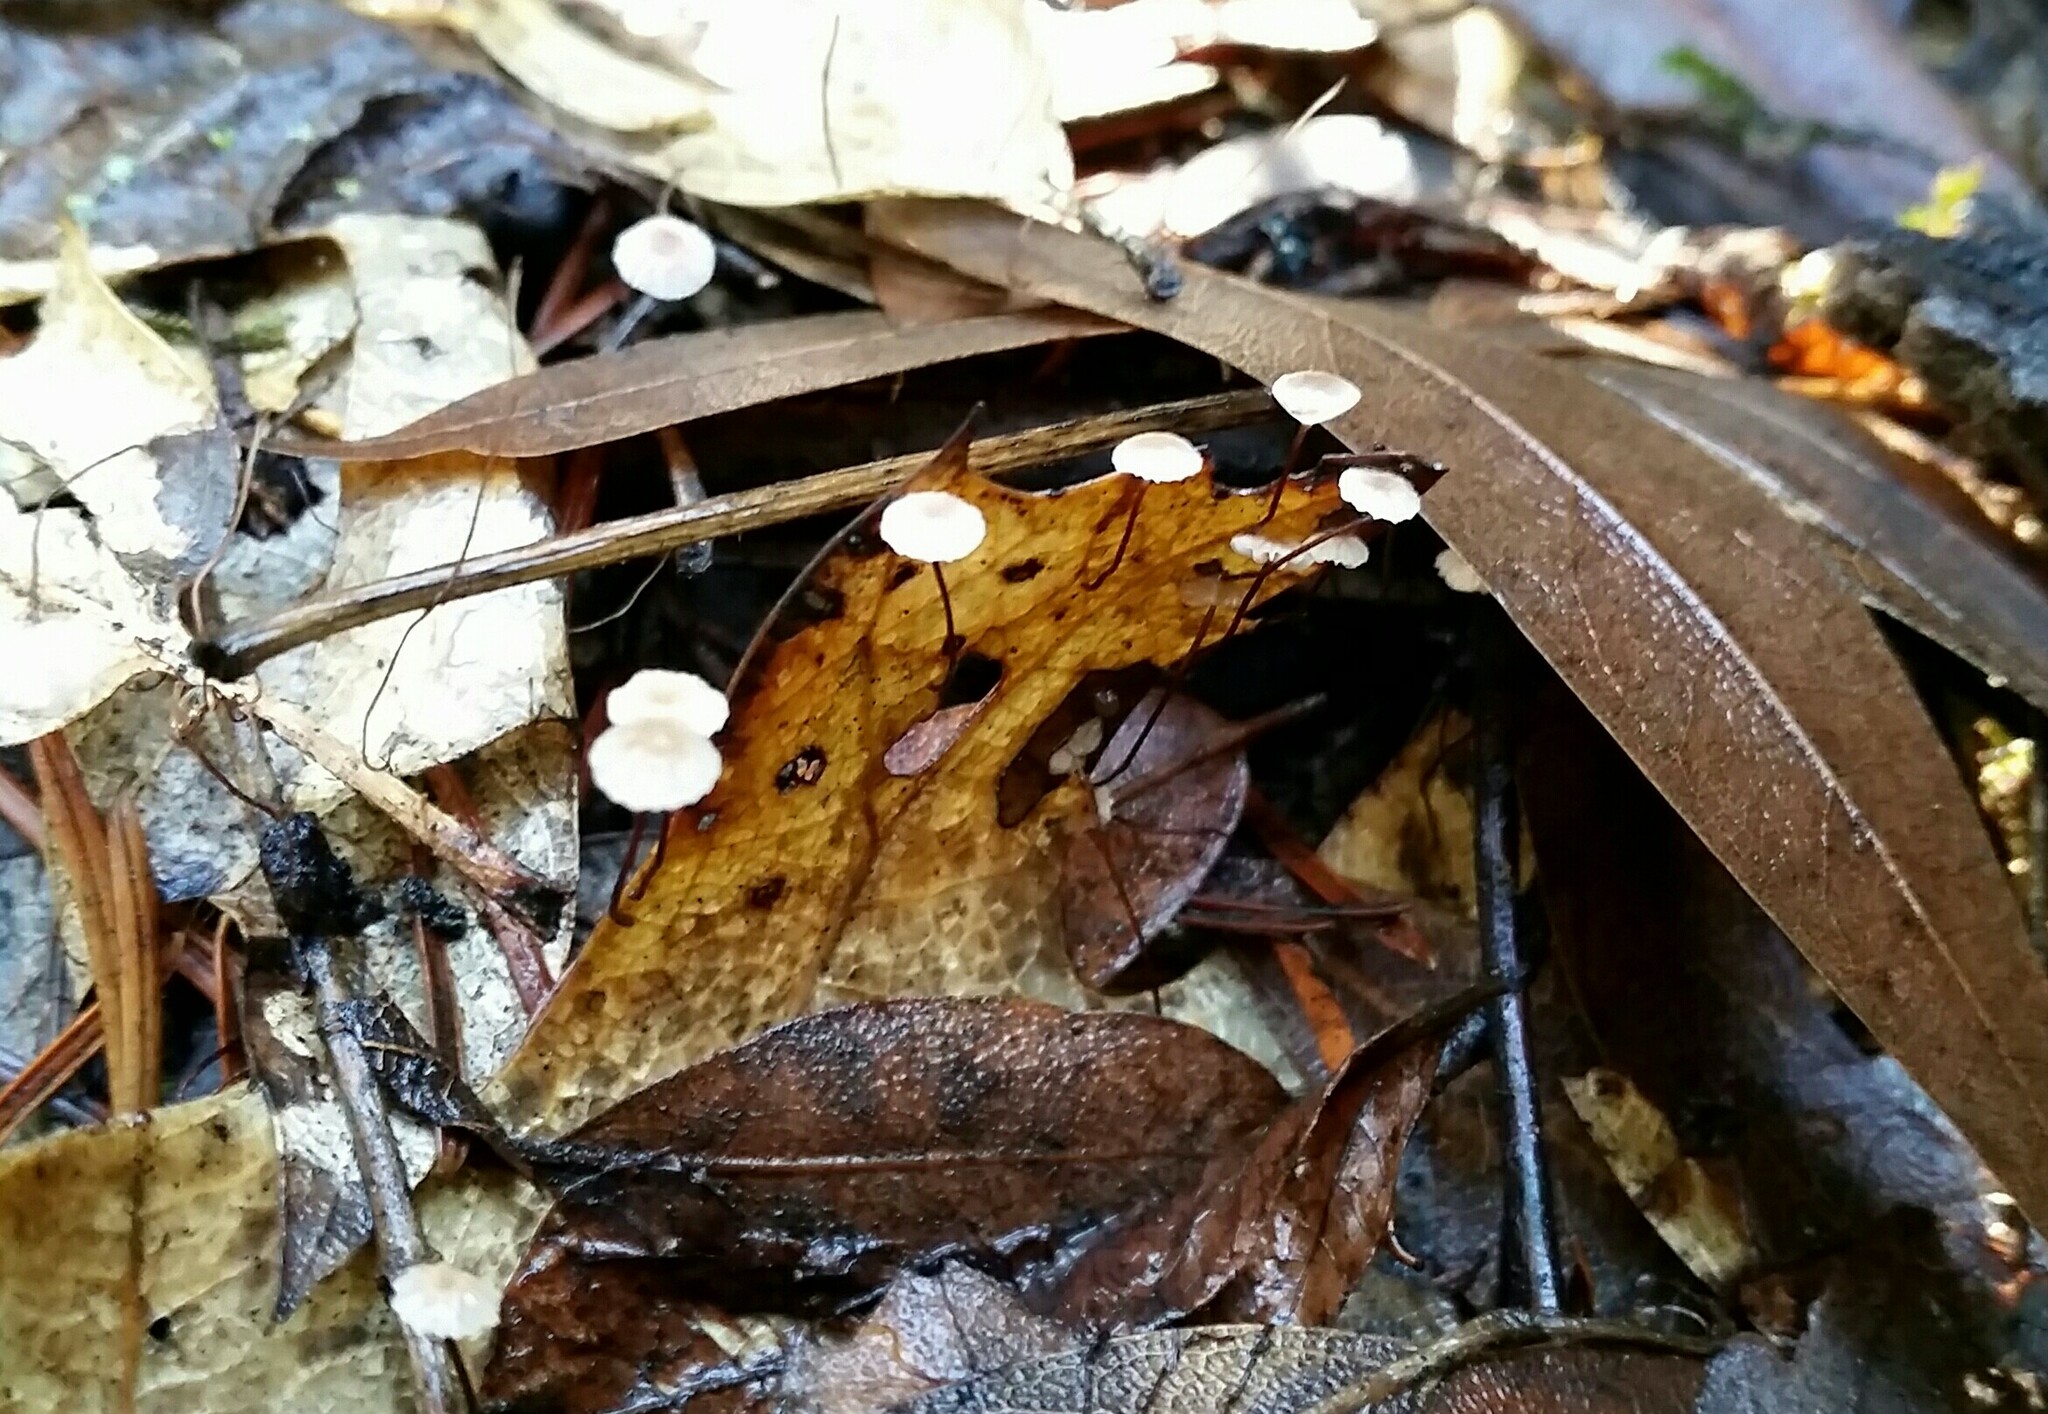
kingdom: Fungi
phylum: Basidiomycota
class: Agaricomycetes
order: Agaricales
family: Omphalotaceae
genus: Collybiopsis
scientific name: Collybiopsis quercophila
